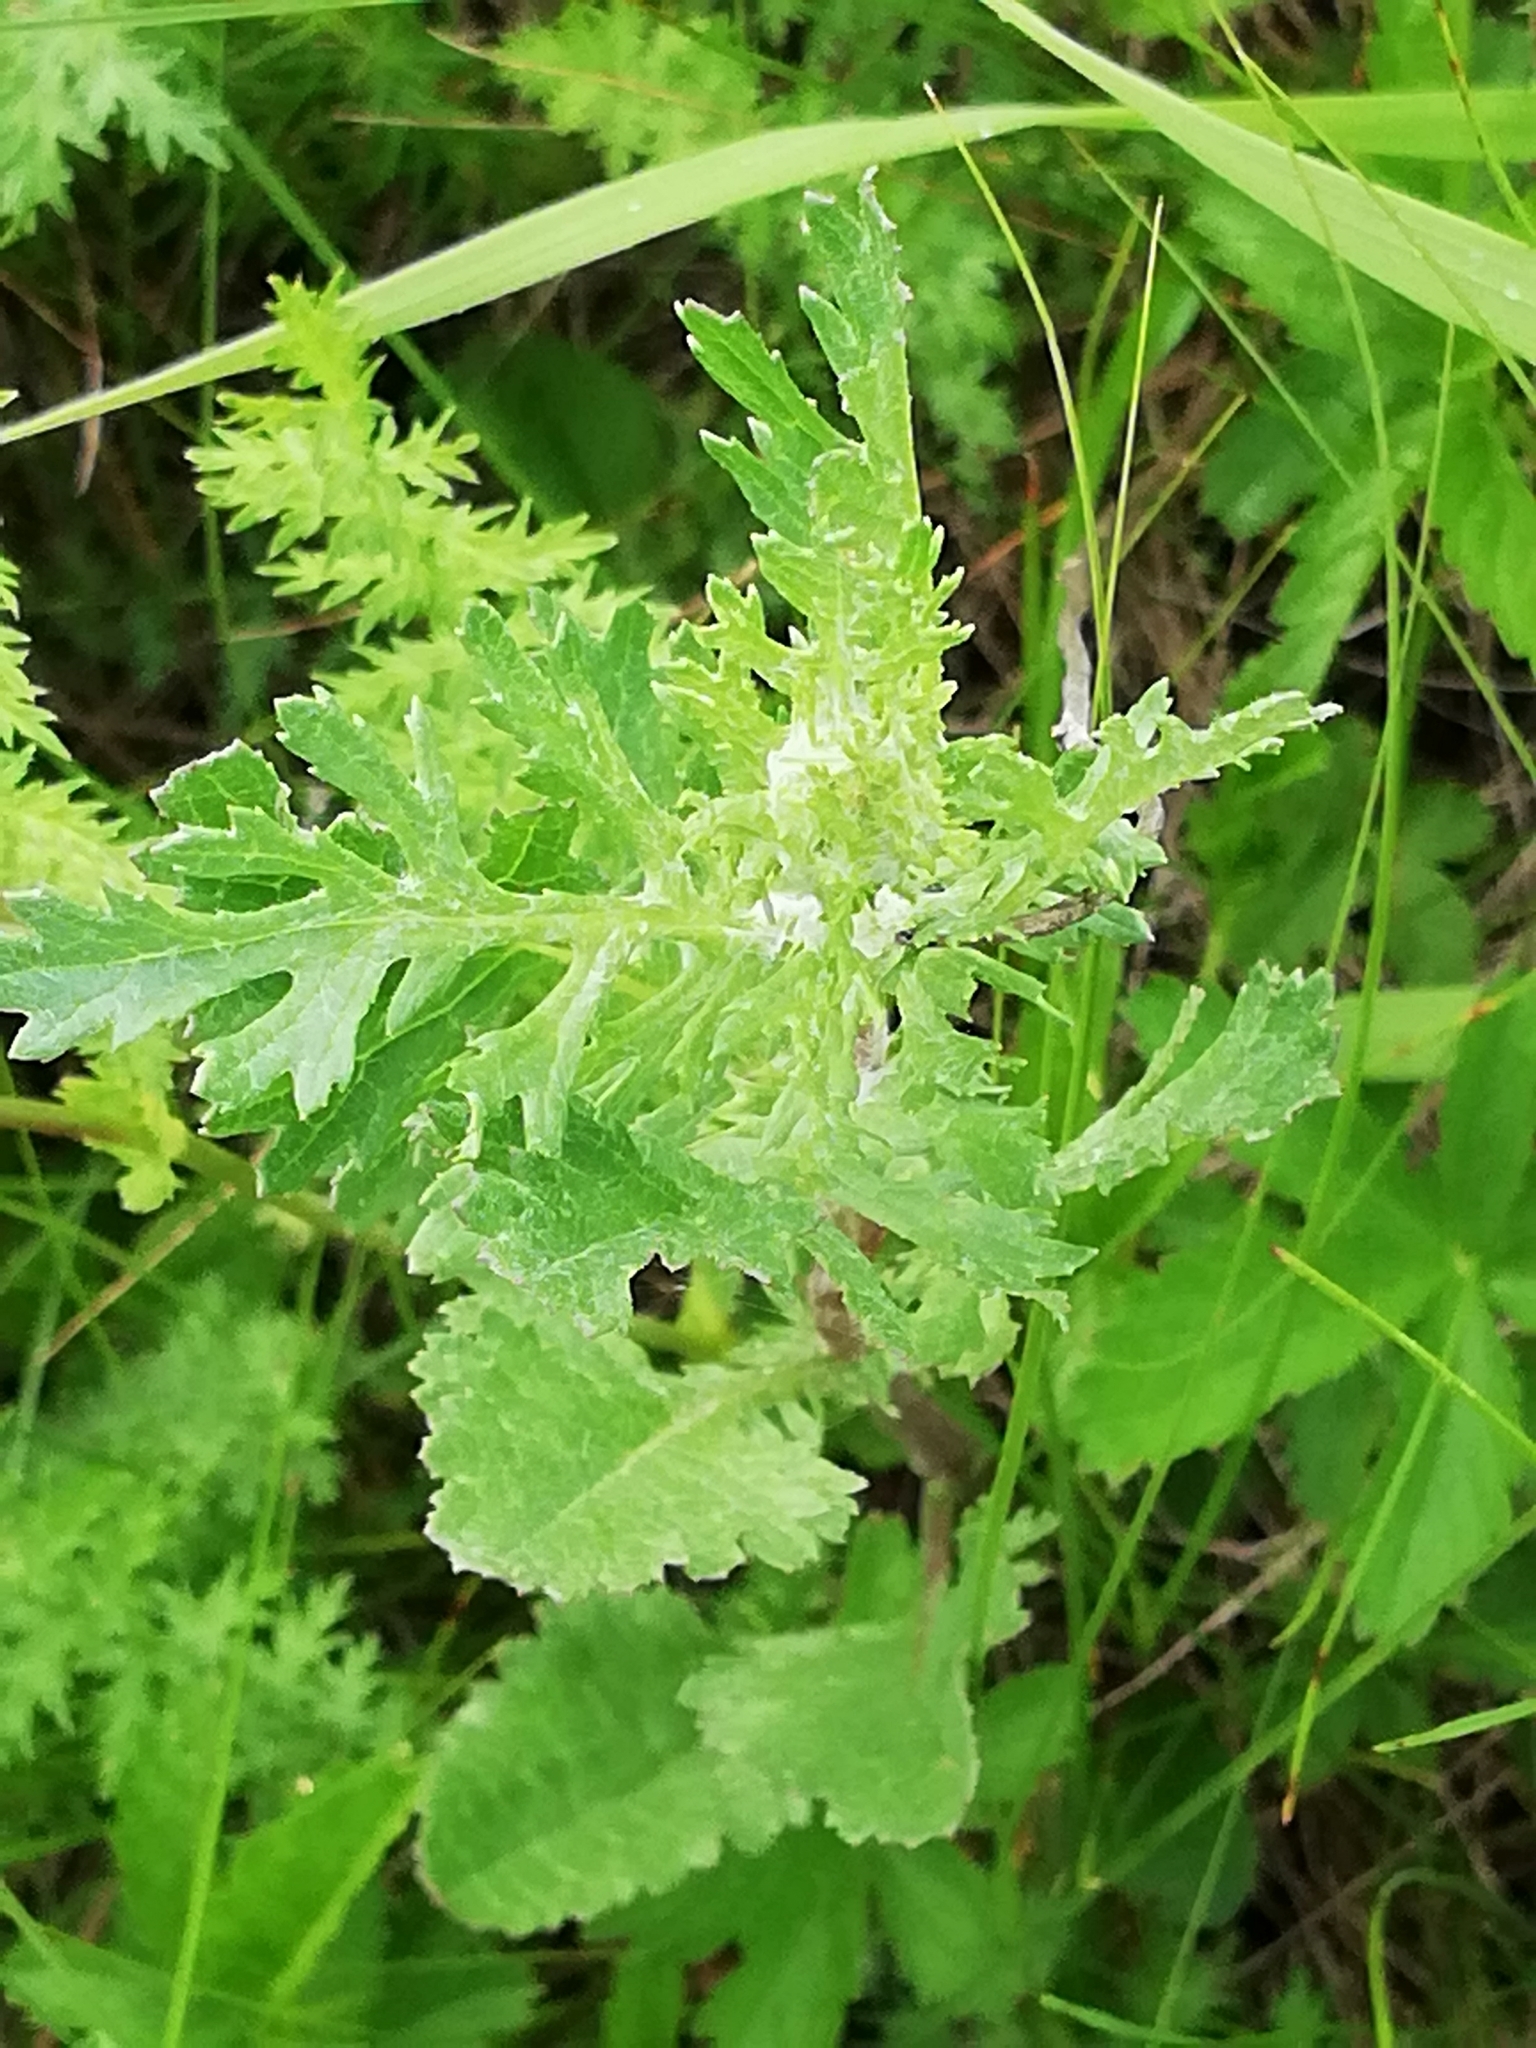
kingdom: Plantae
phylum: Tracheophyta
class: Magnoliopsida
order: Asterales
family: Asteraceae
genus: Jacobaea
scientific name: Jacobaea vulgaris
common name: Stinking willie
